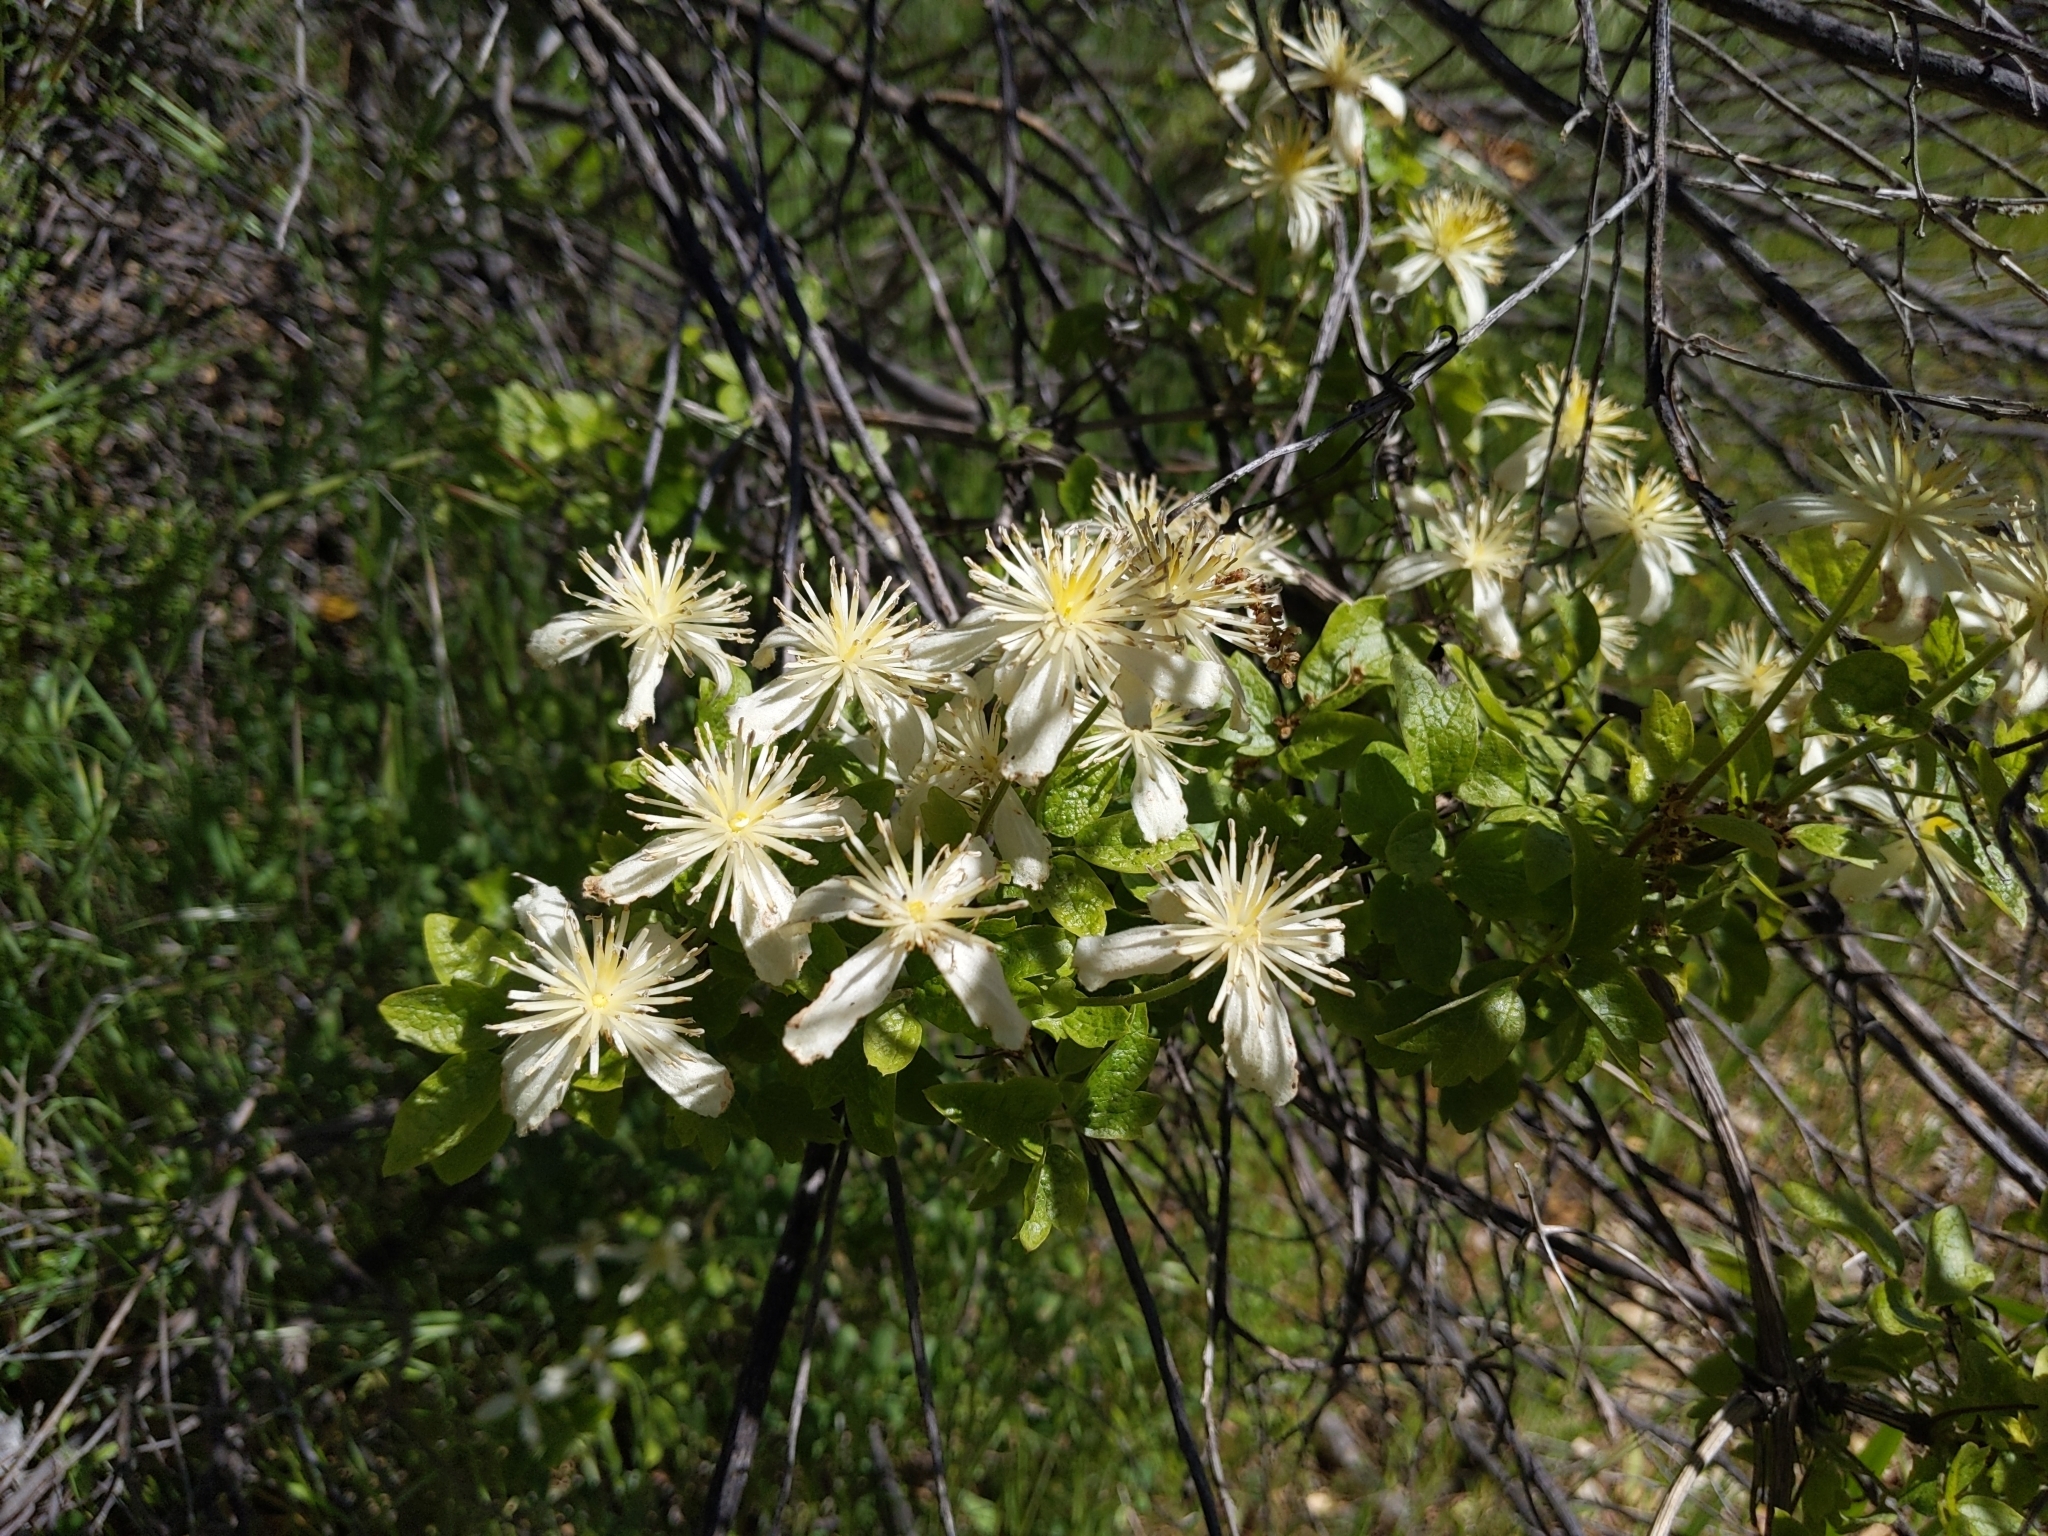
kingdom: Plantae
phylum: Tracheophyta
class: Magnoliopsida
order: Ranunculales
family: Ranunculaceae
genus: Clematis
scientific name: Clematis lasiantha
